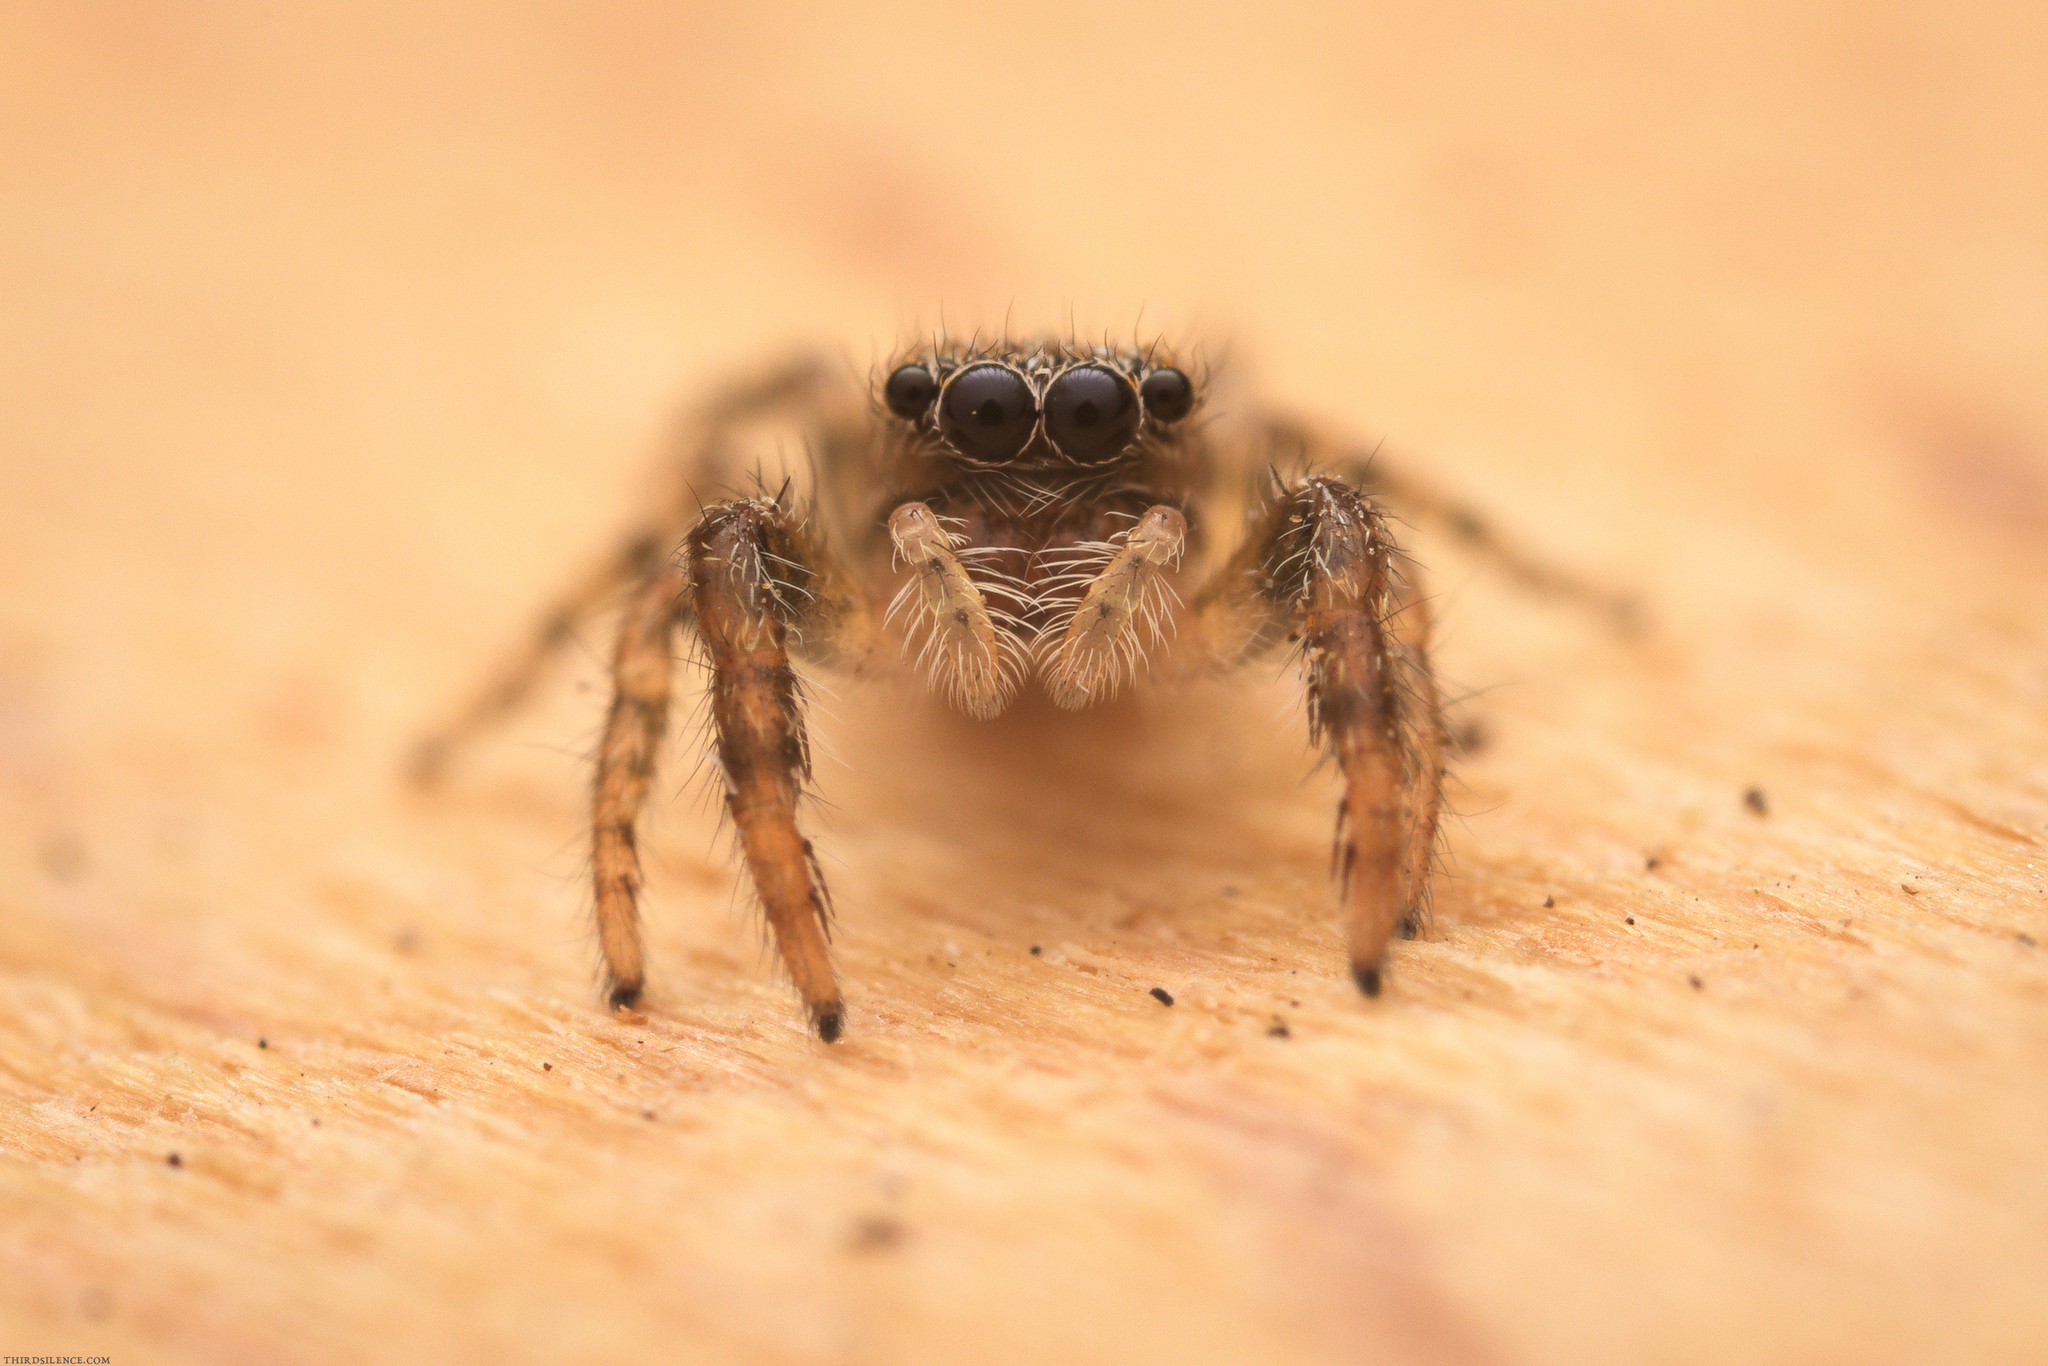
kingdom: Animalia
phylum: Arthropoda
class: Arachnida
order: Araneae
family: Salticidae
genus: Marpissa
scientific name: Marpissa muscosa
